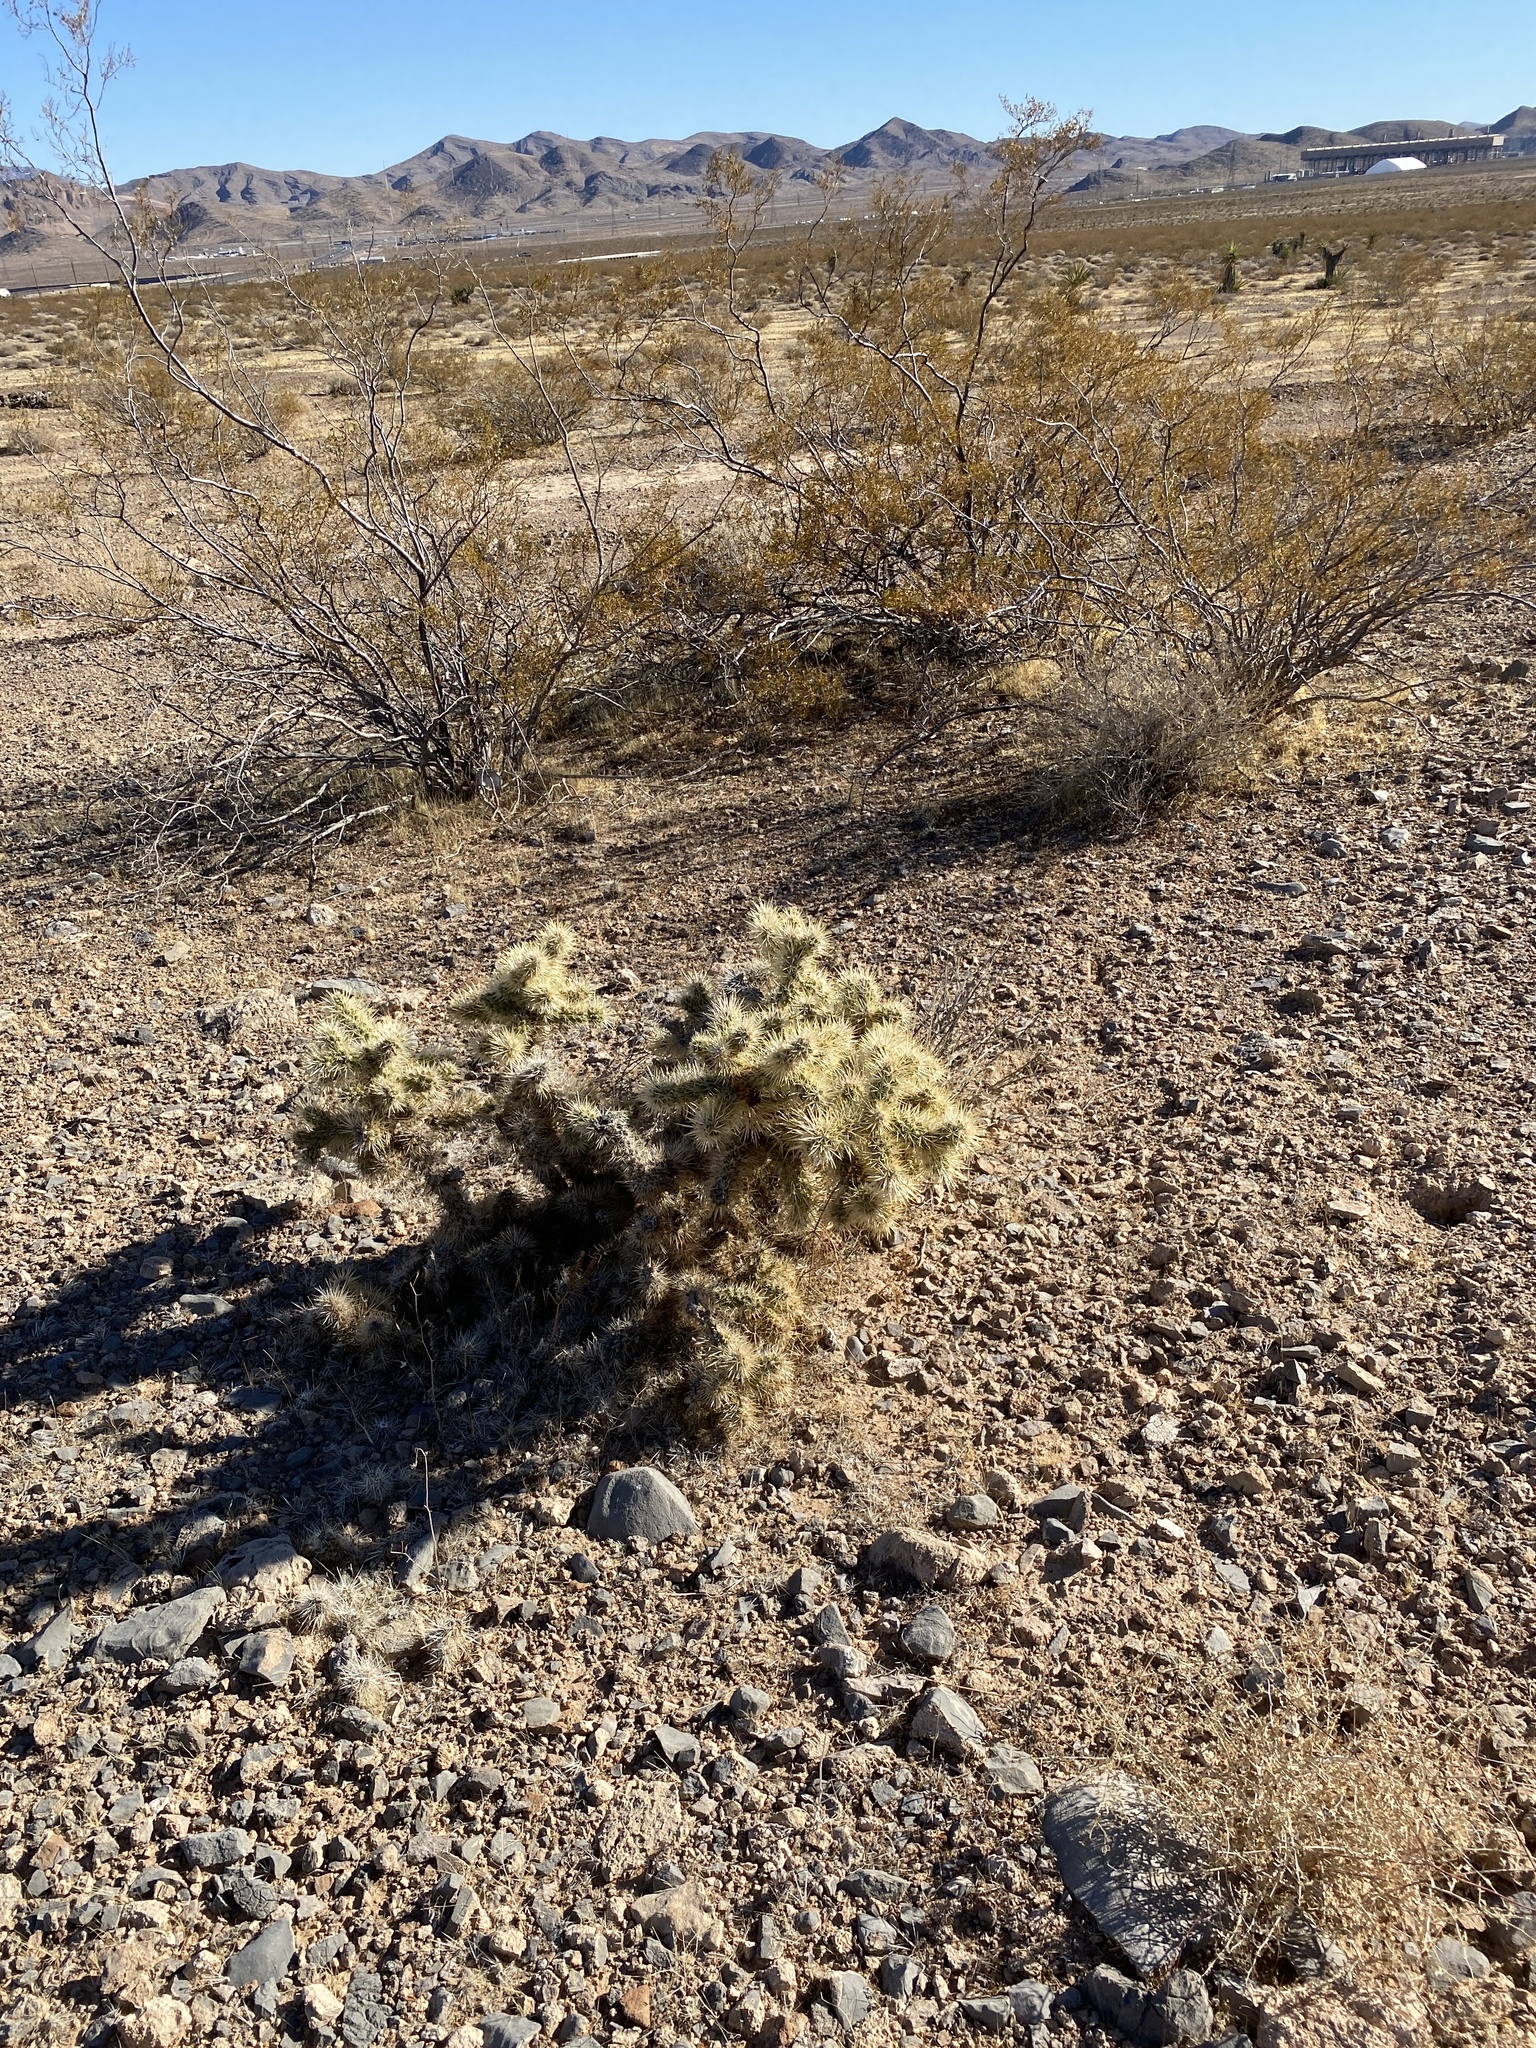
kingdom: Plantae
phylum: Tracheophyta
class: Magnoliopsida
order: Caryophyllales
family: Cactaceae
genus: Cylindropuntia
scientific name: Cylindropuntia acanthocarpa
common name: Buckhorn cholla
